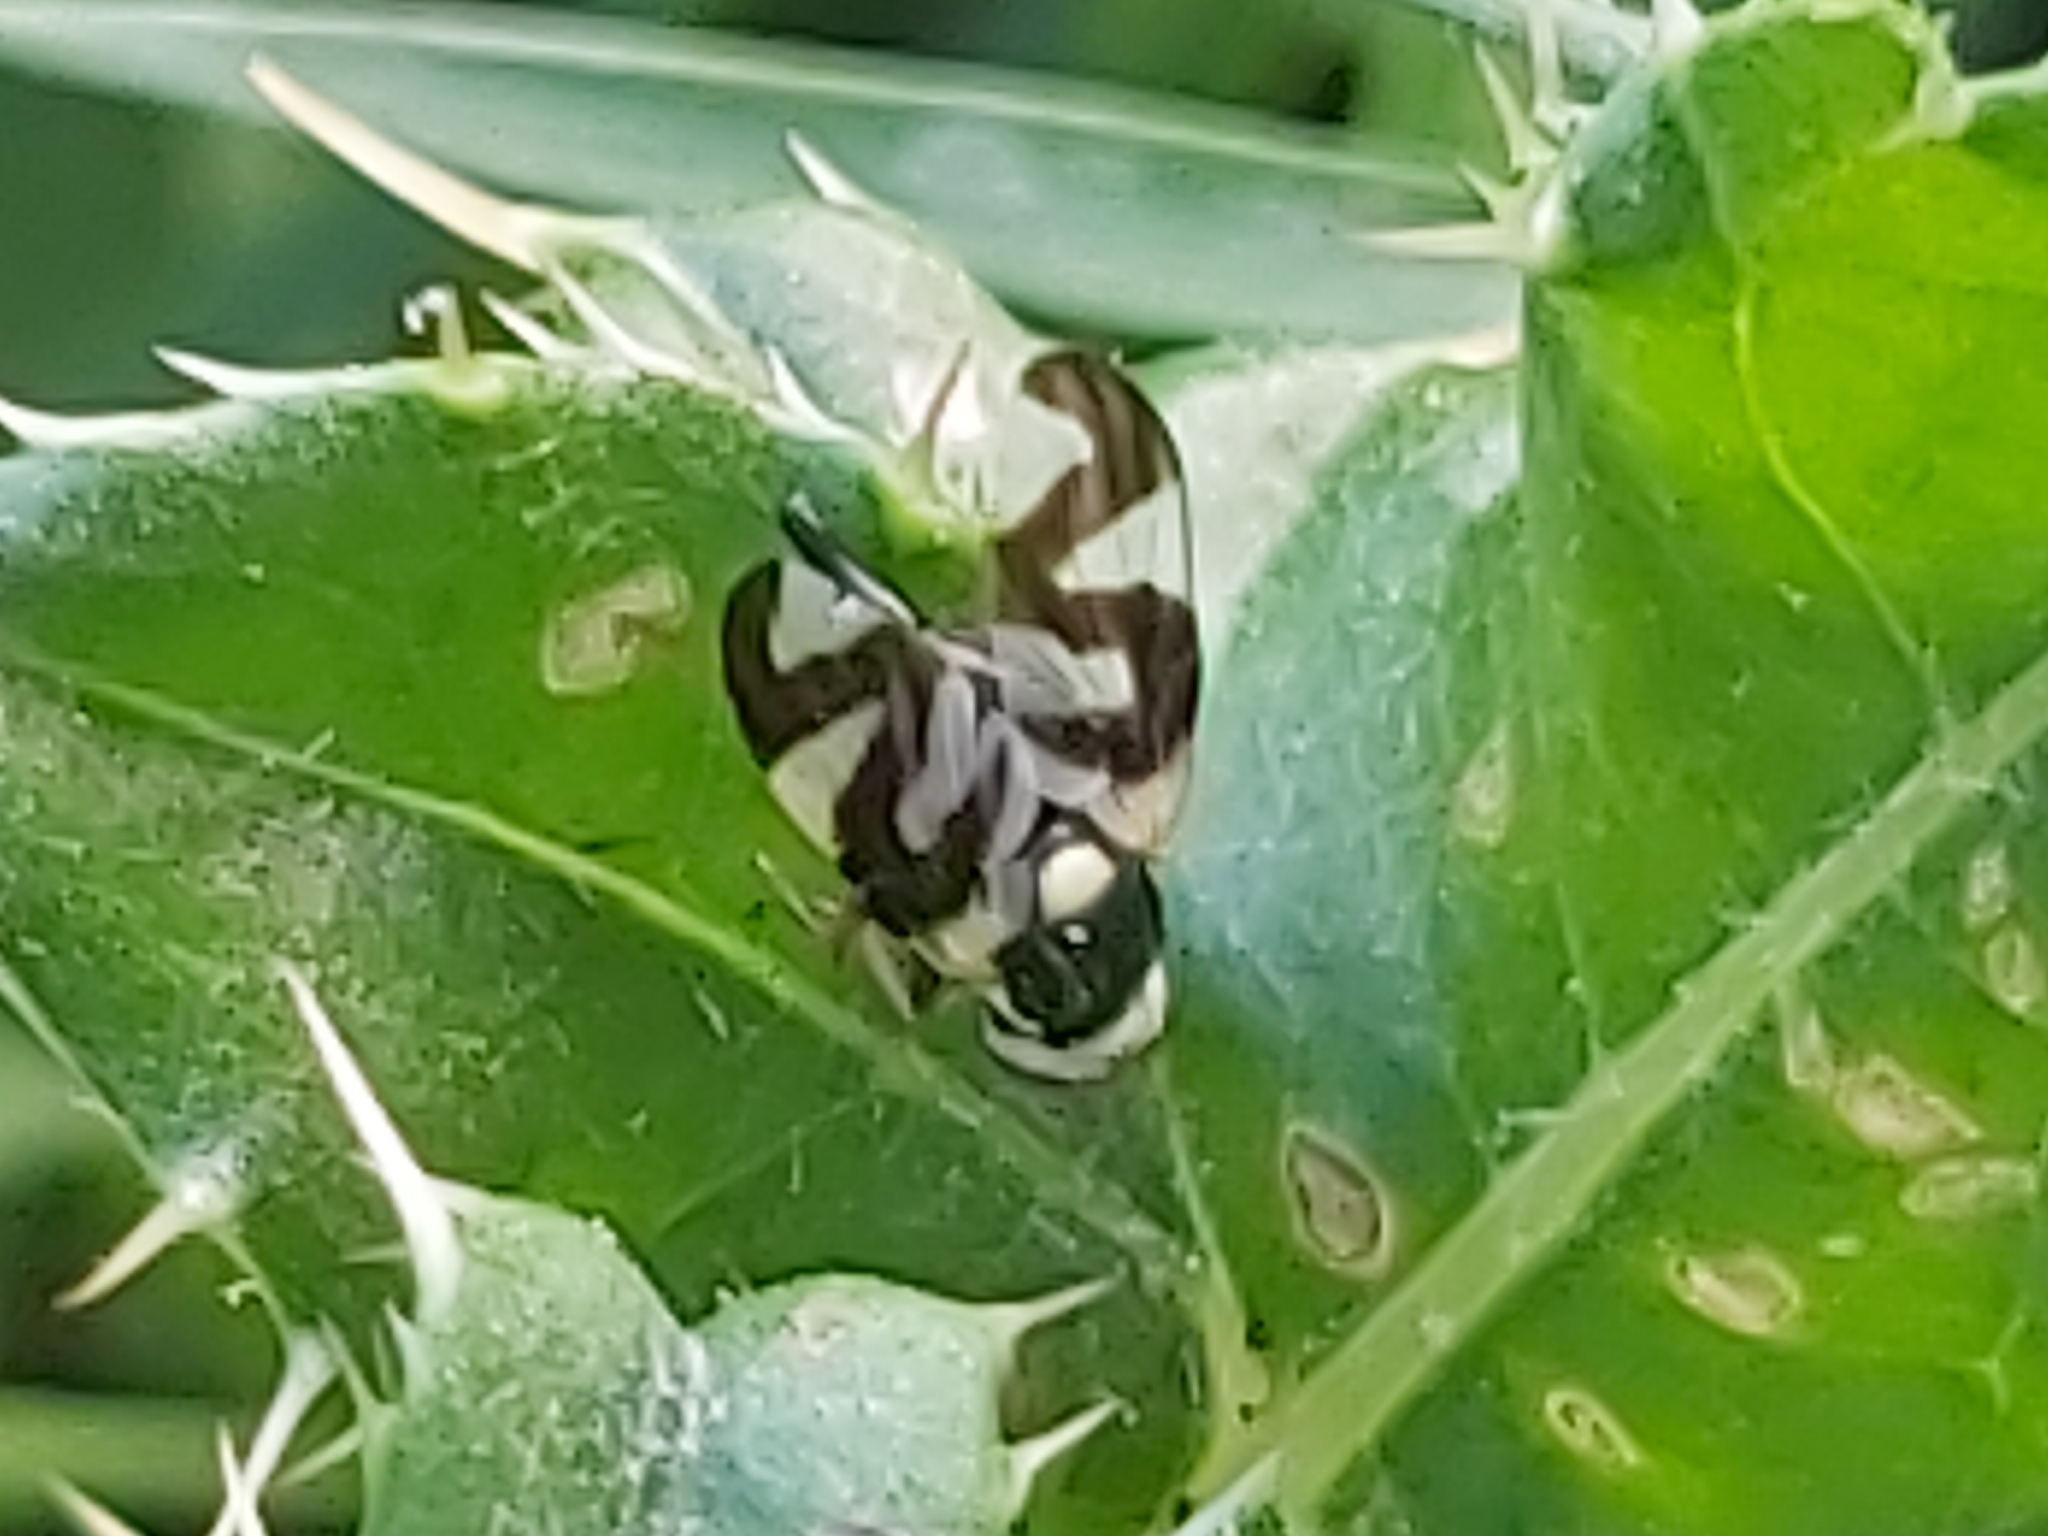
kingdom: Animalia
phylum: Arthropoda
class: Insecta
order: Diptera
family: Tephritidae
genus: Urophora
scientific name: Urophora cardui
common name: Fruit fly
